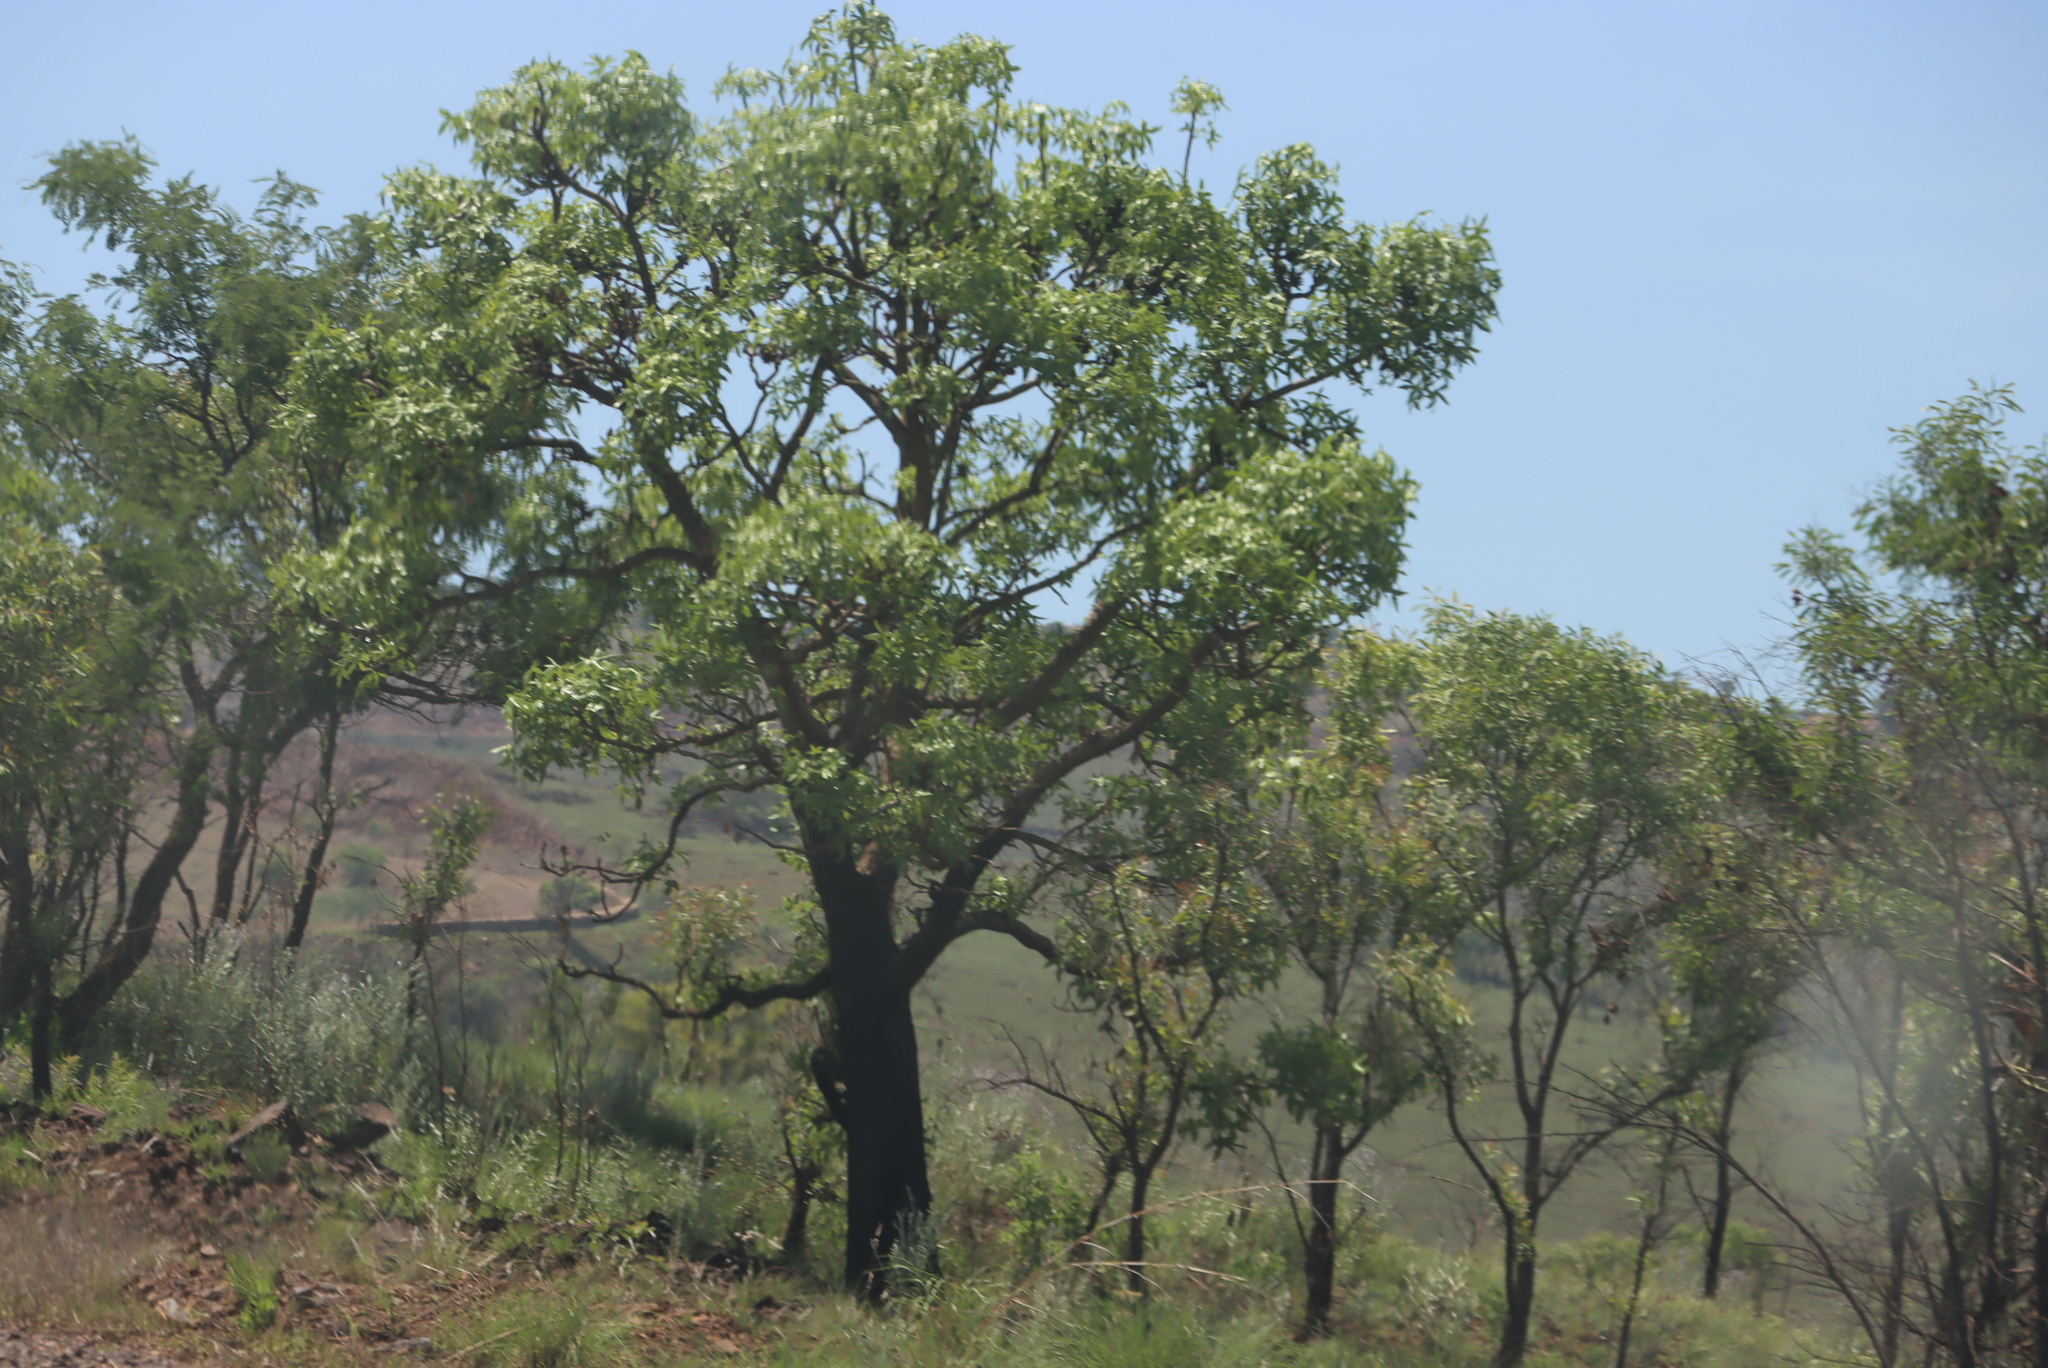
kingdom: Plantae
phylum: Tracheophyta
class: Magnoliopsida
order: Apiales
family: Araliaceae
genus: Cussonia
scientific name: Cussonia natalensis
